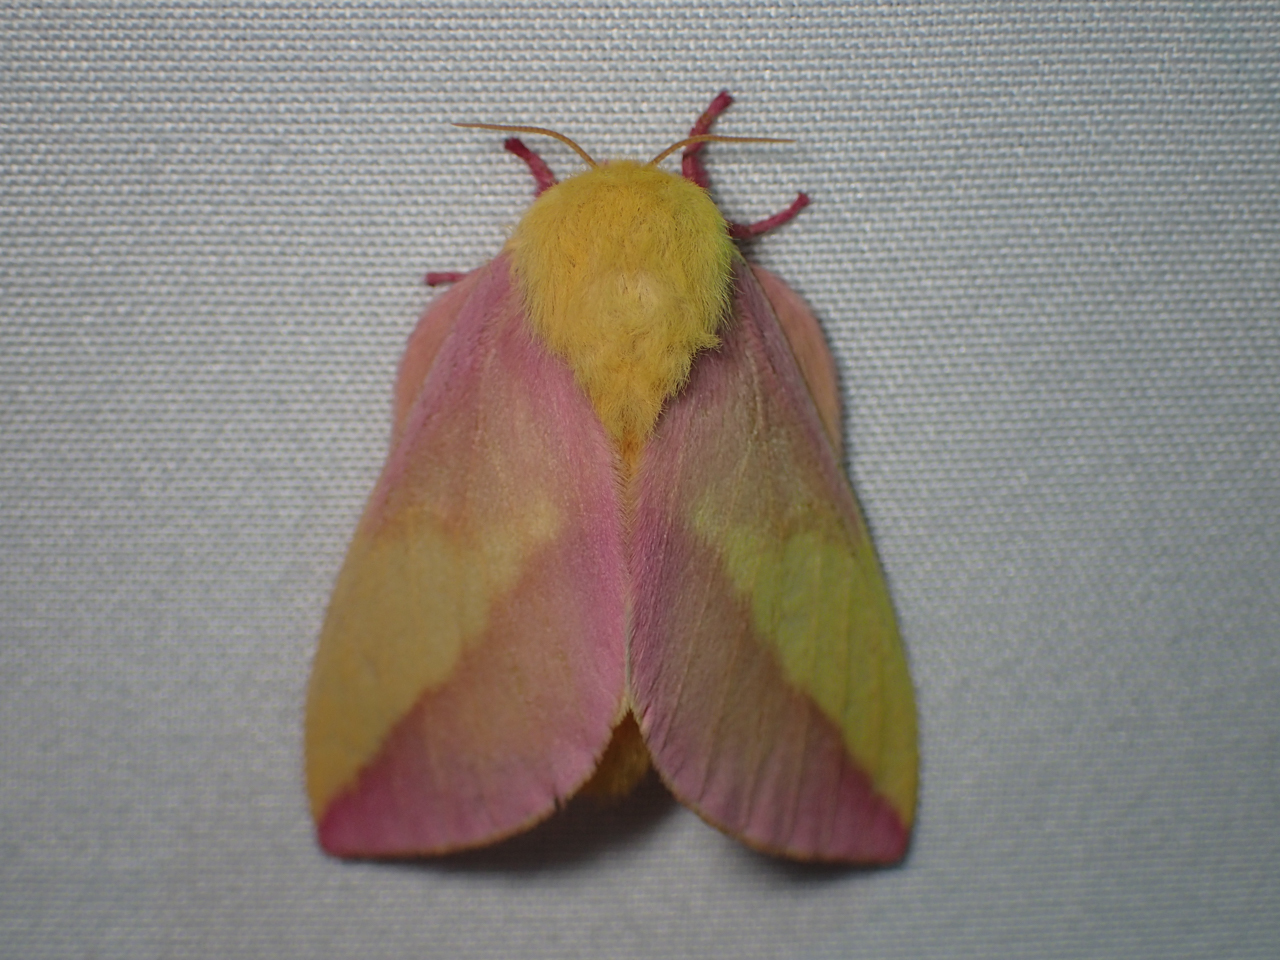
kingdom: Animalia
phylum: Arthropoda
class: Insecta
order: Lepidoptera
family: Saturniidae
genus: Dryocampa
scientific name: Dryocampa rubicunda
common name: Rosy maple moth
